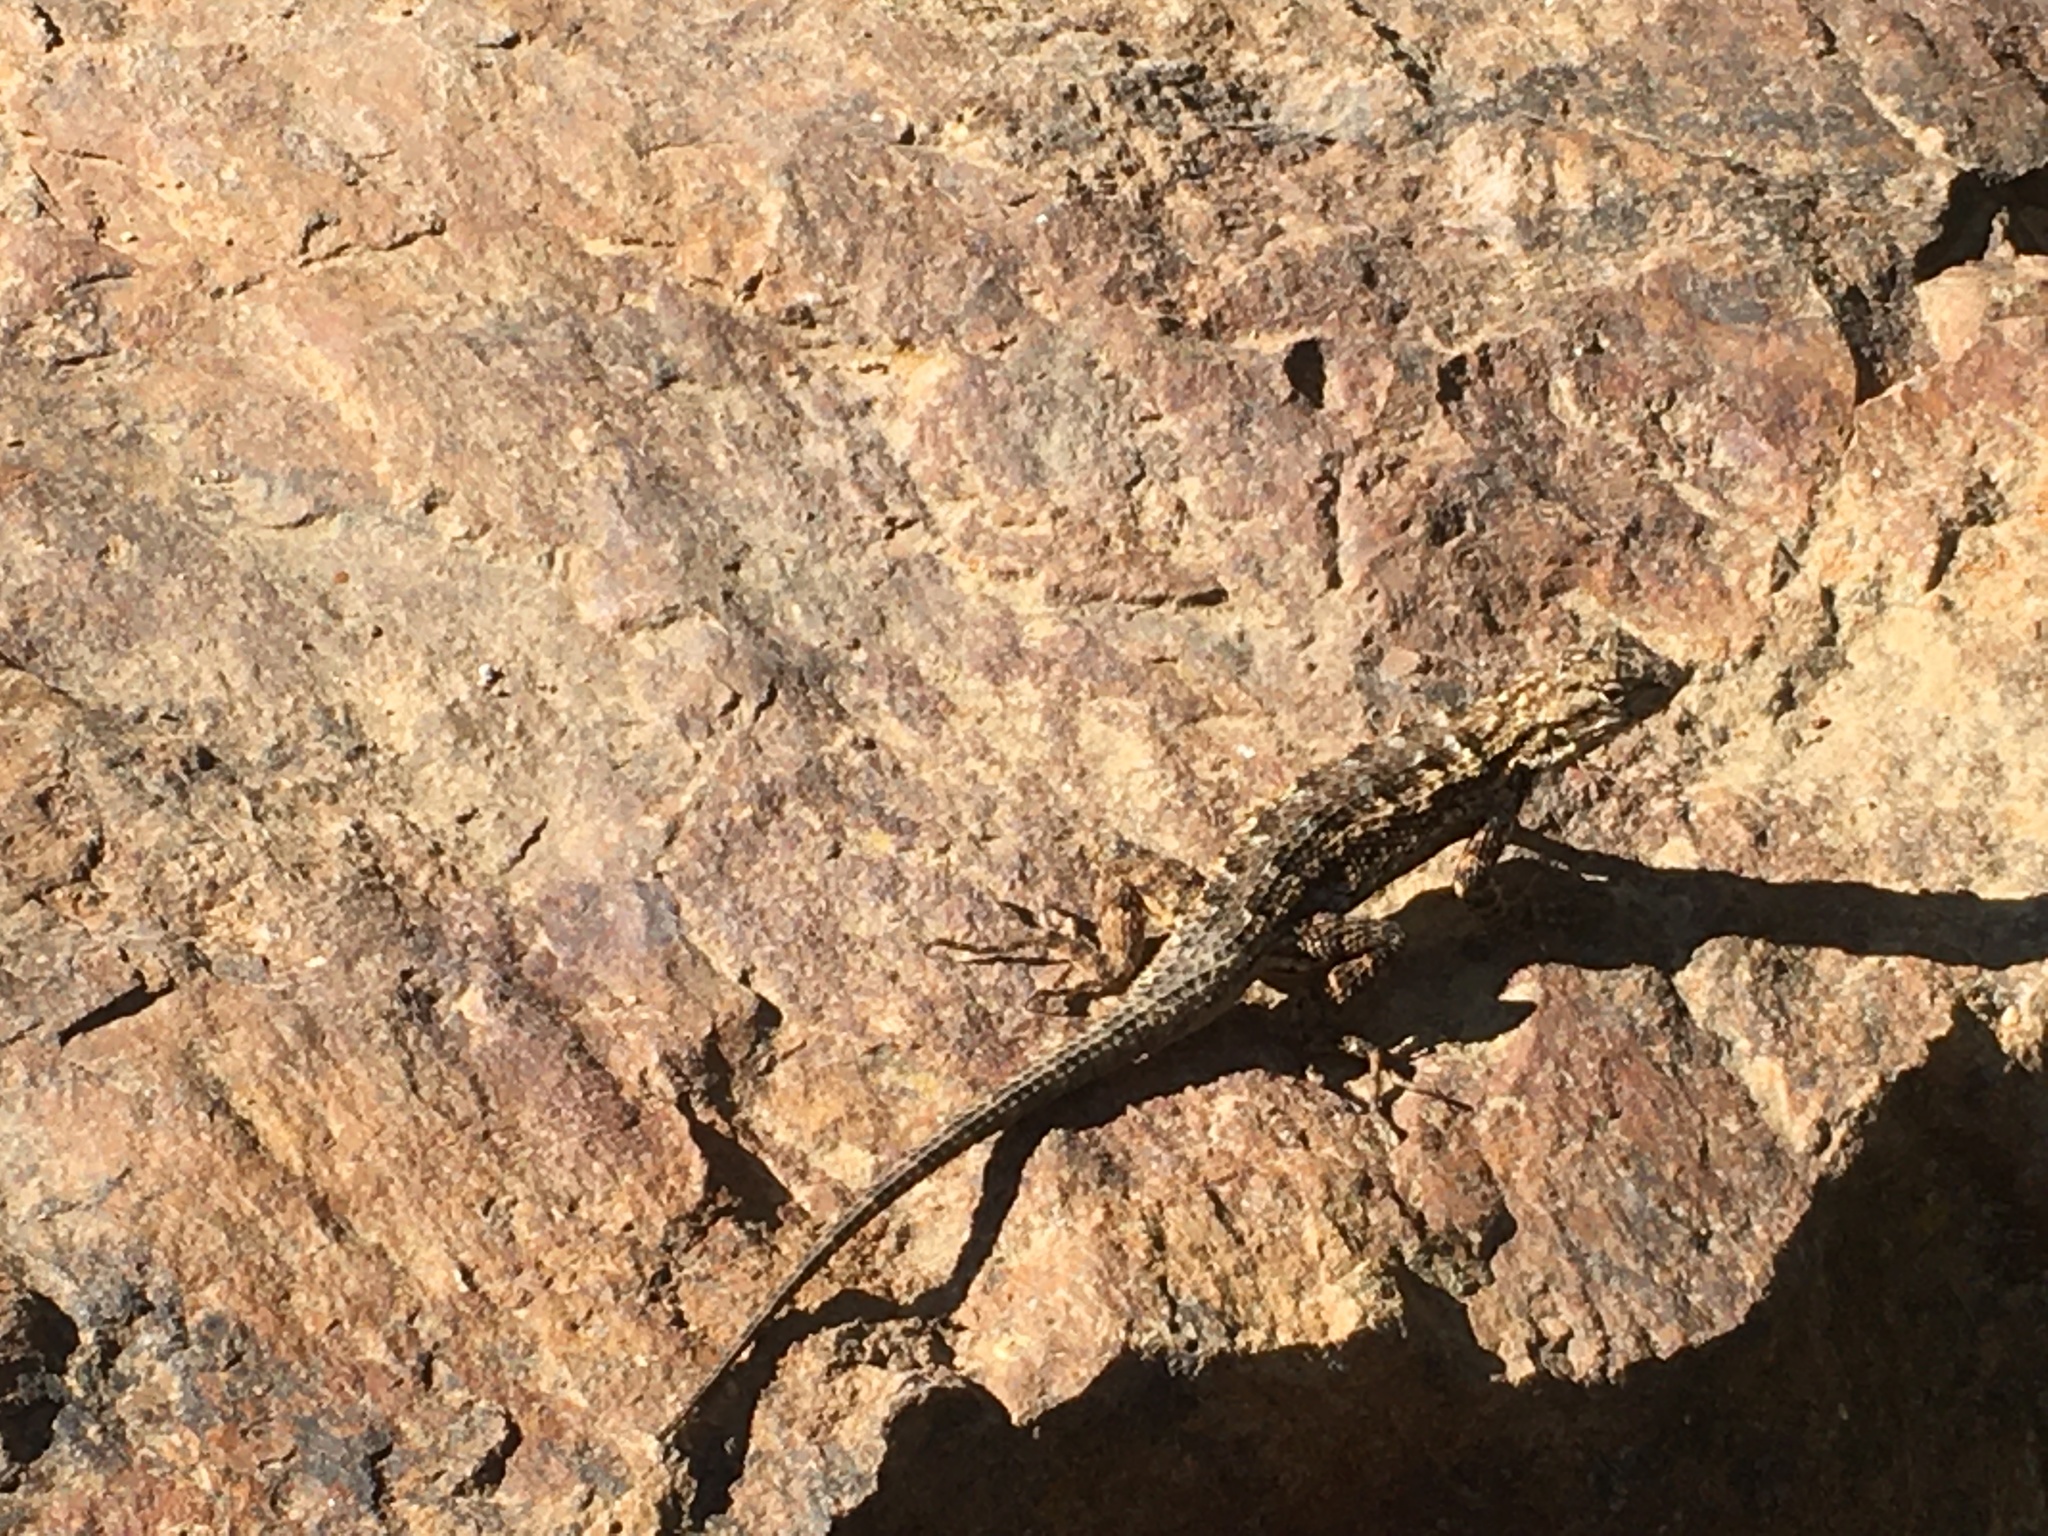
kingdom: Animalia
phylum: Chordata
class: Squamata
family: Phrynosomatidae
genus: Sceloporus
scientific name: Sceloporus occidentalis
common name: Western fence lizard
